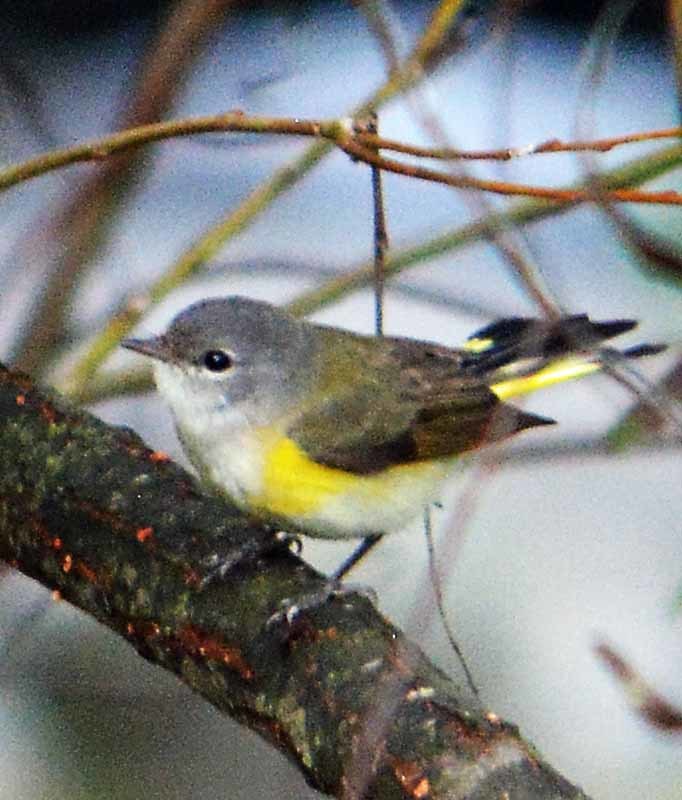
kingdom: Animalia
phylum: Chordata
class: Aves
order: Passeriformes
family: Parulidae
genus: Setophaga
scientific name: Setophaga ruticilla
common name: American redstart
